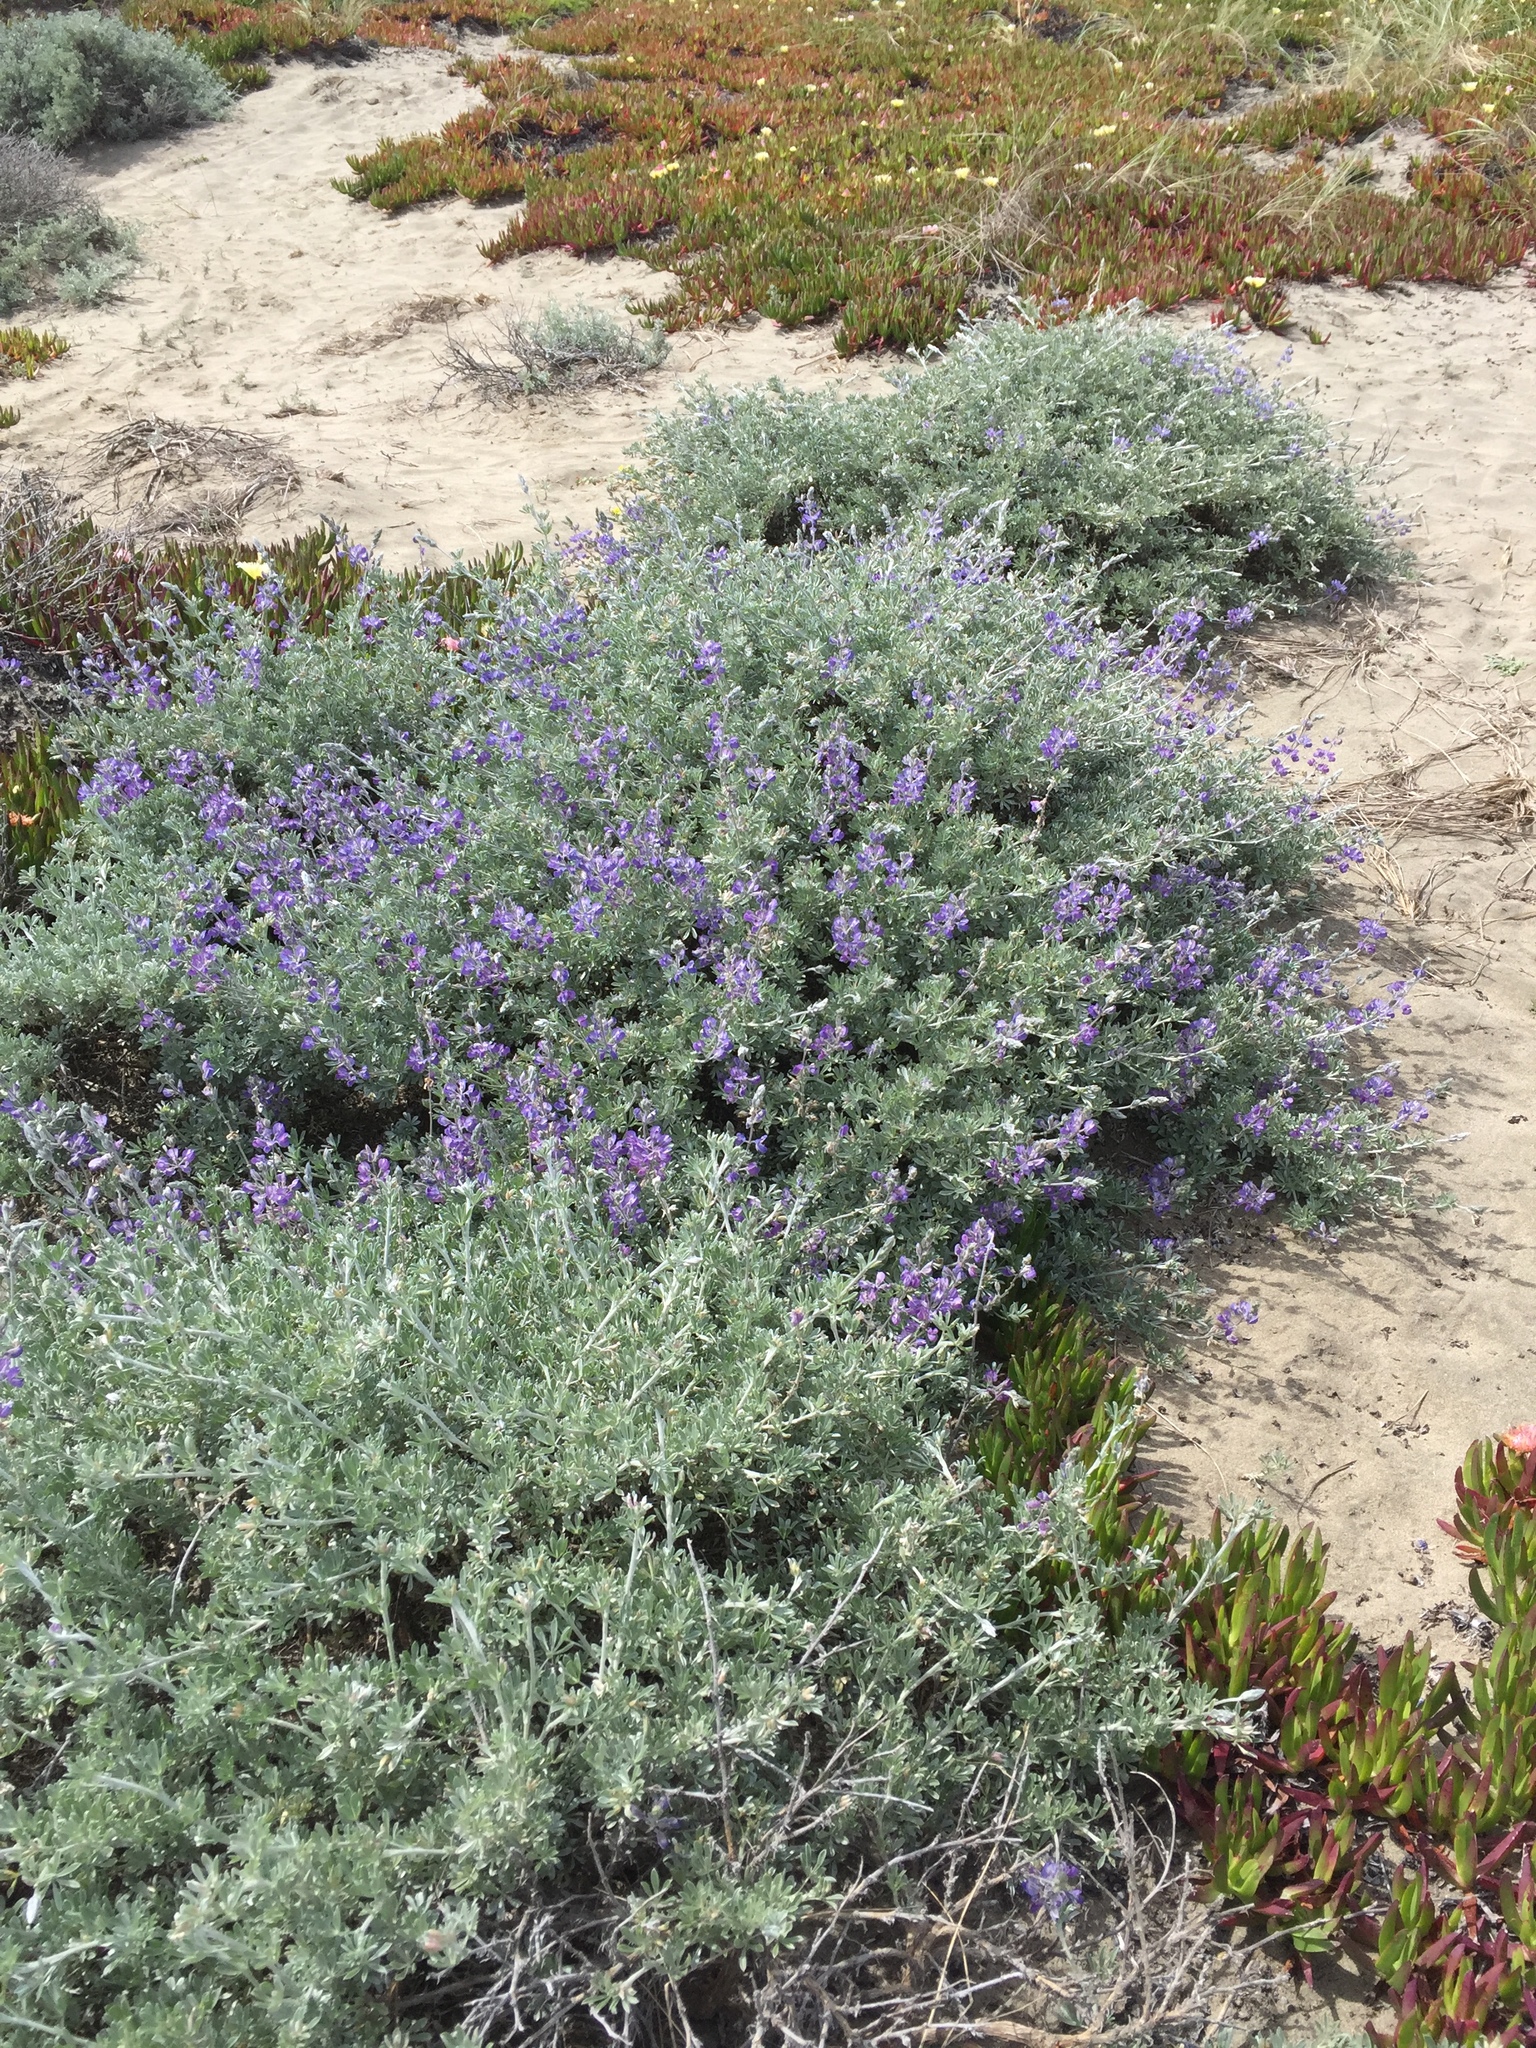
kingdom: Plantae
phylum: Tracheophyta
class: Magnoliopsida
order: Fabales
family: Fabaceae
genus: Lupinus
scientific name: Lupinus chamissonis
